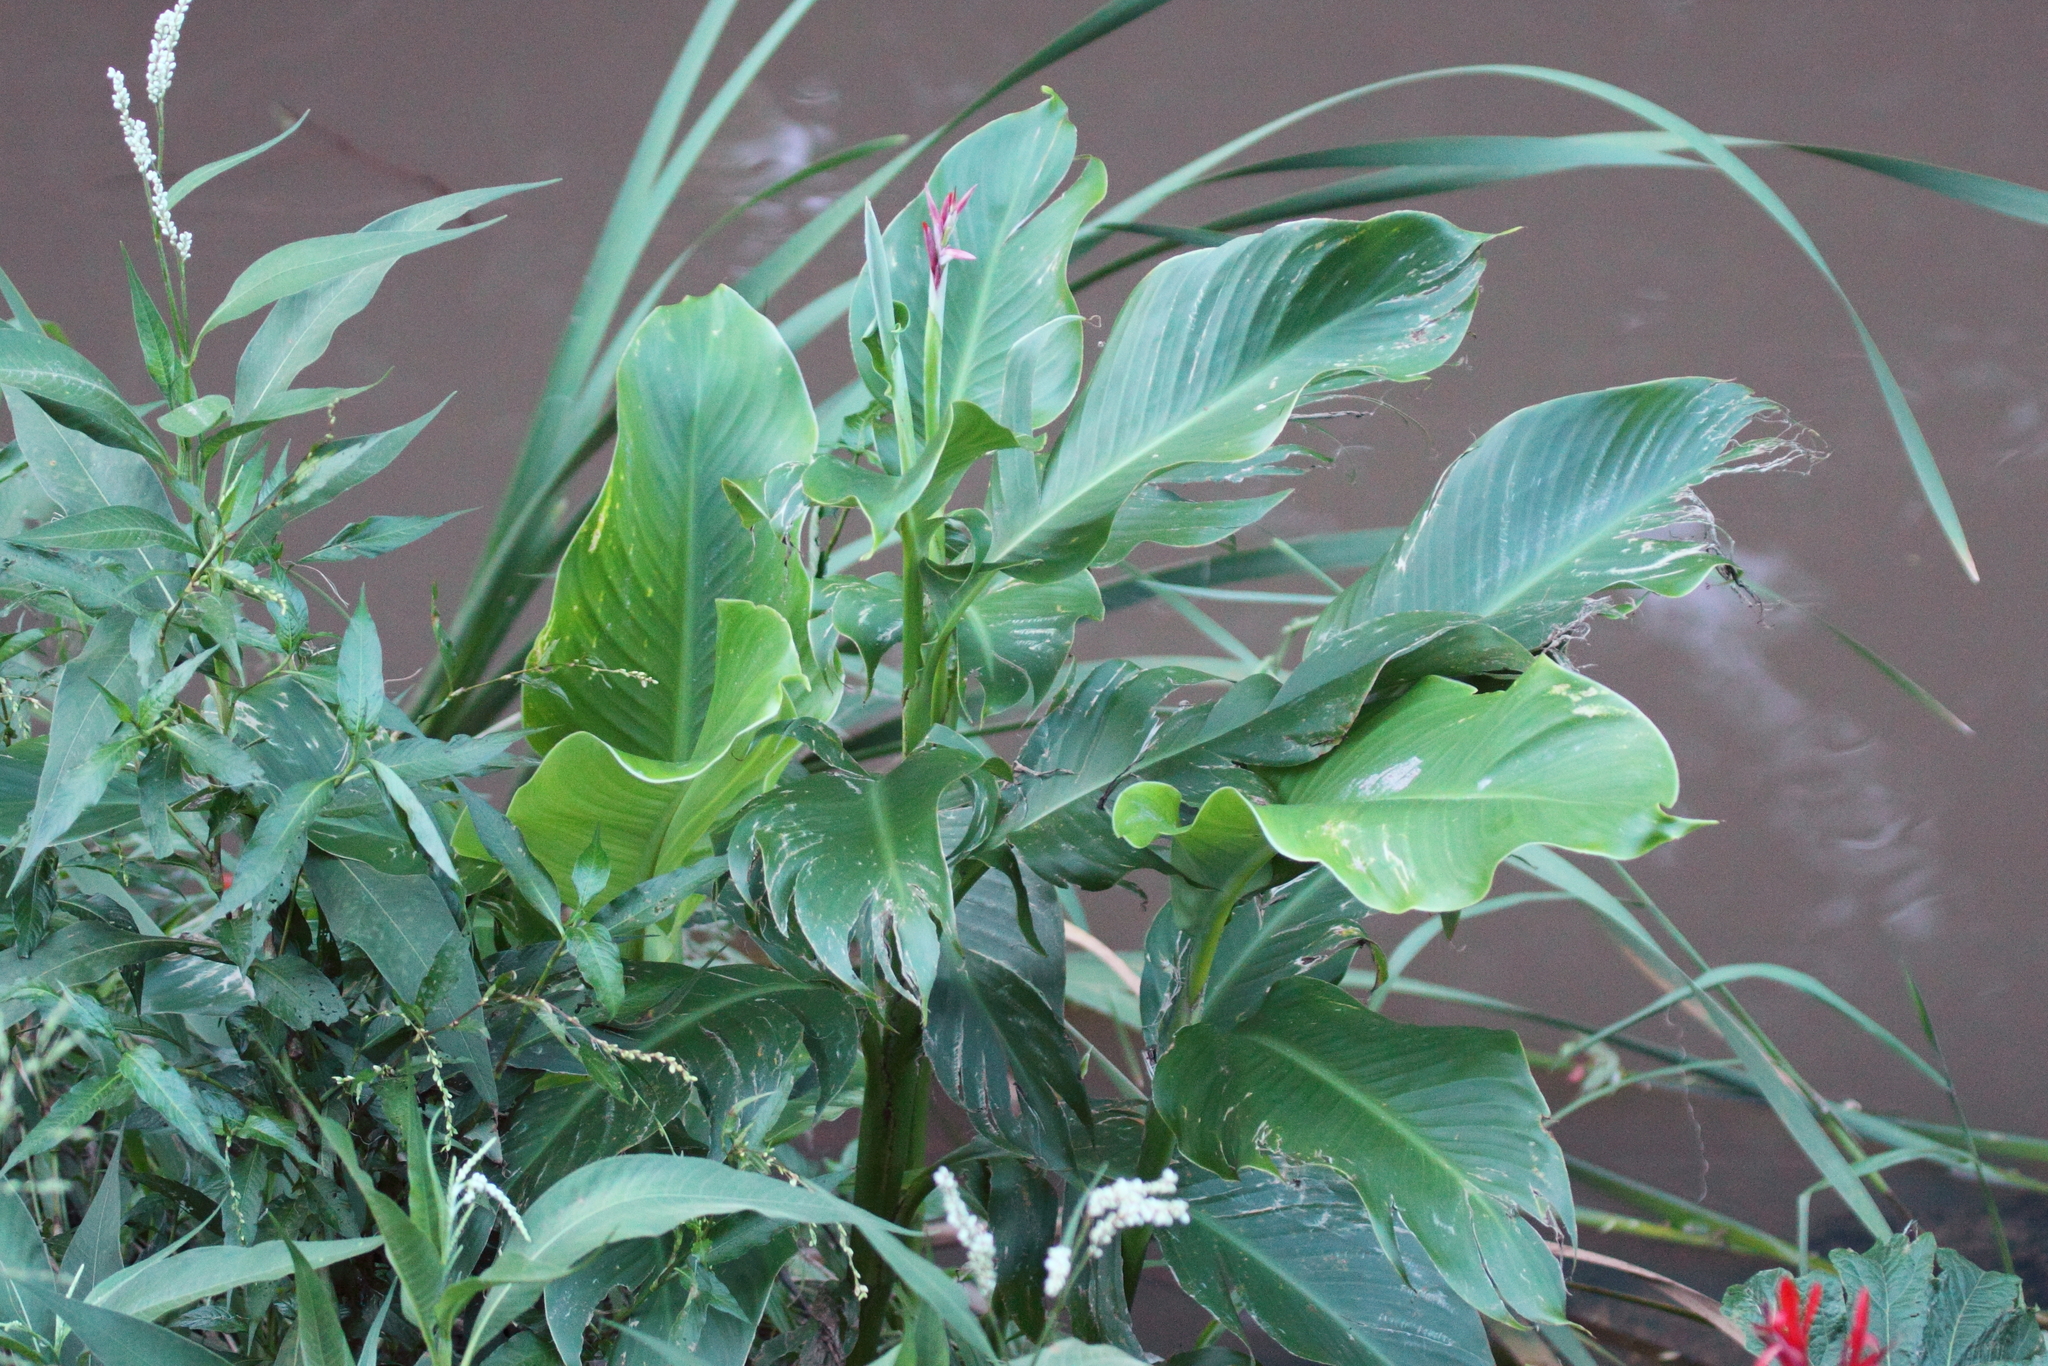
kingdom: Plantae
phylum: Tracheophyta
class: Liliopsida
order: Zingiberales
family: Cannaceae
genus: Canna
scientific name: Canna hybrida
